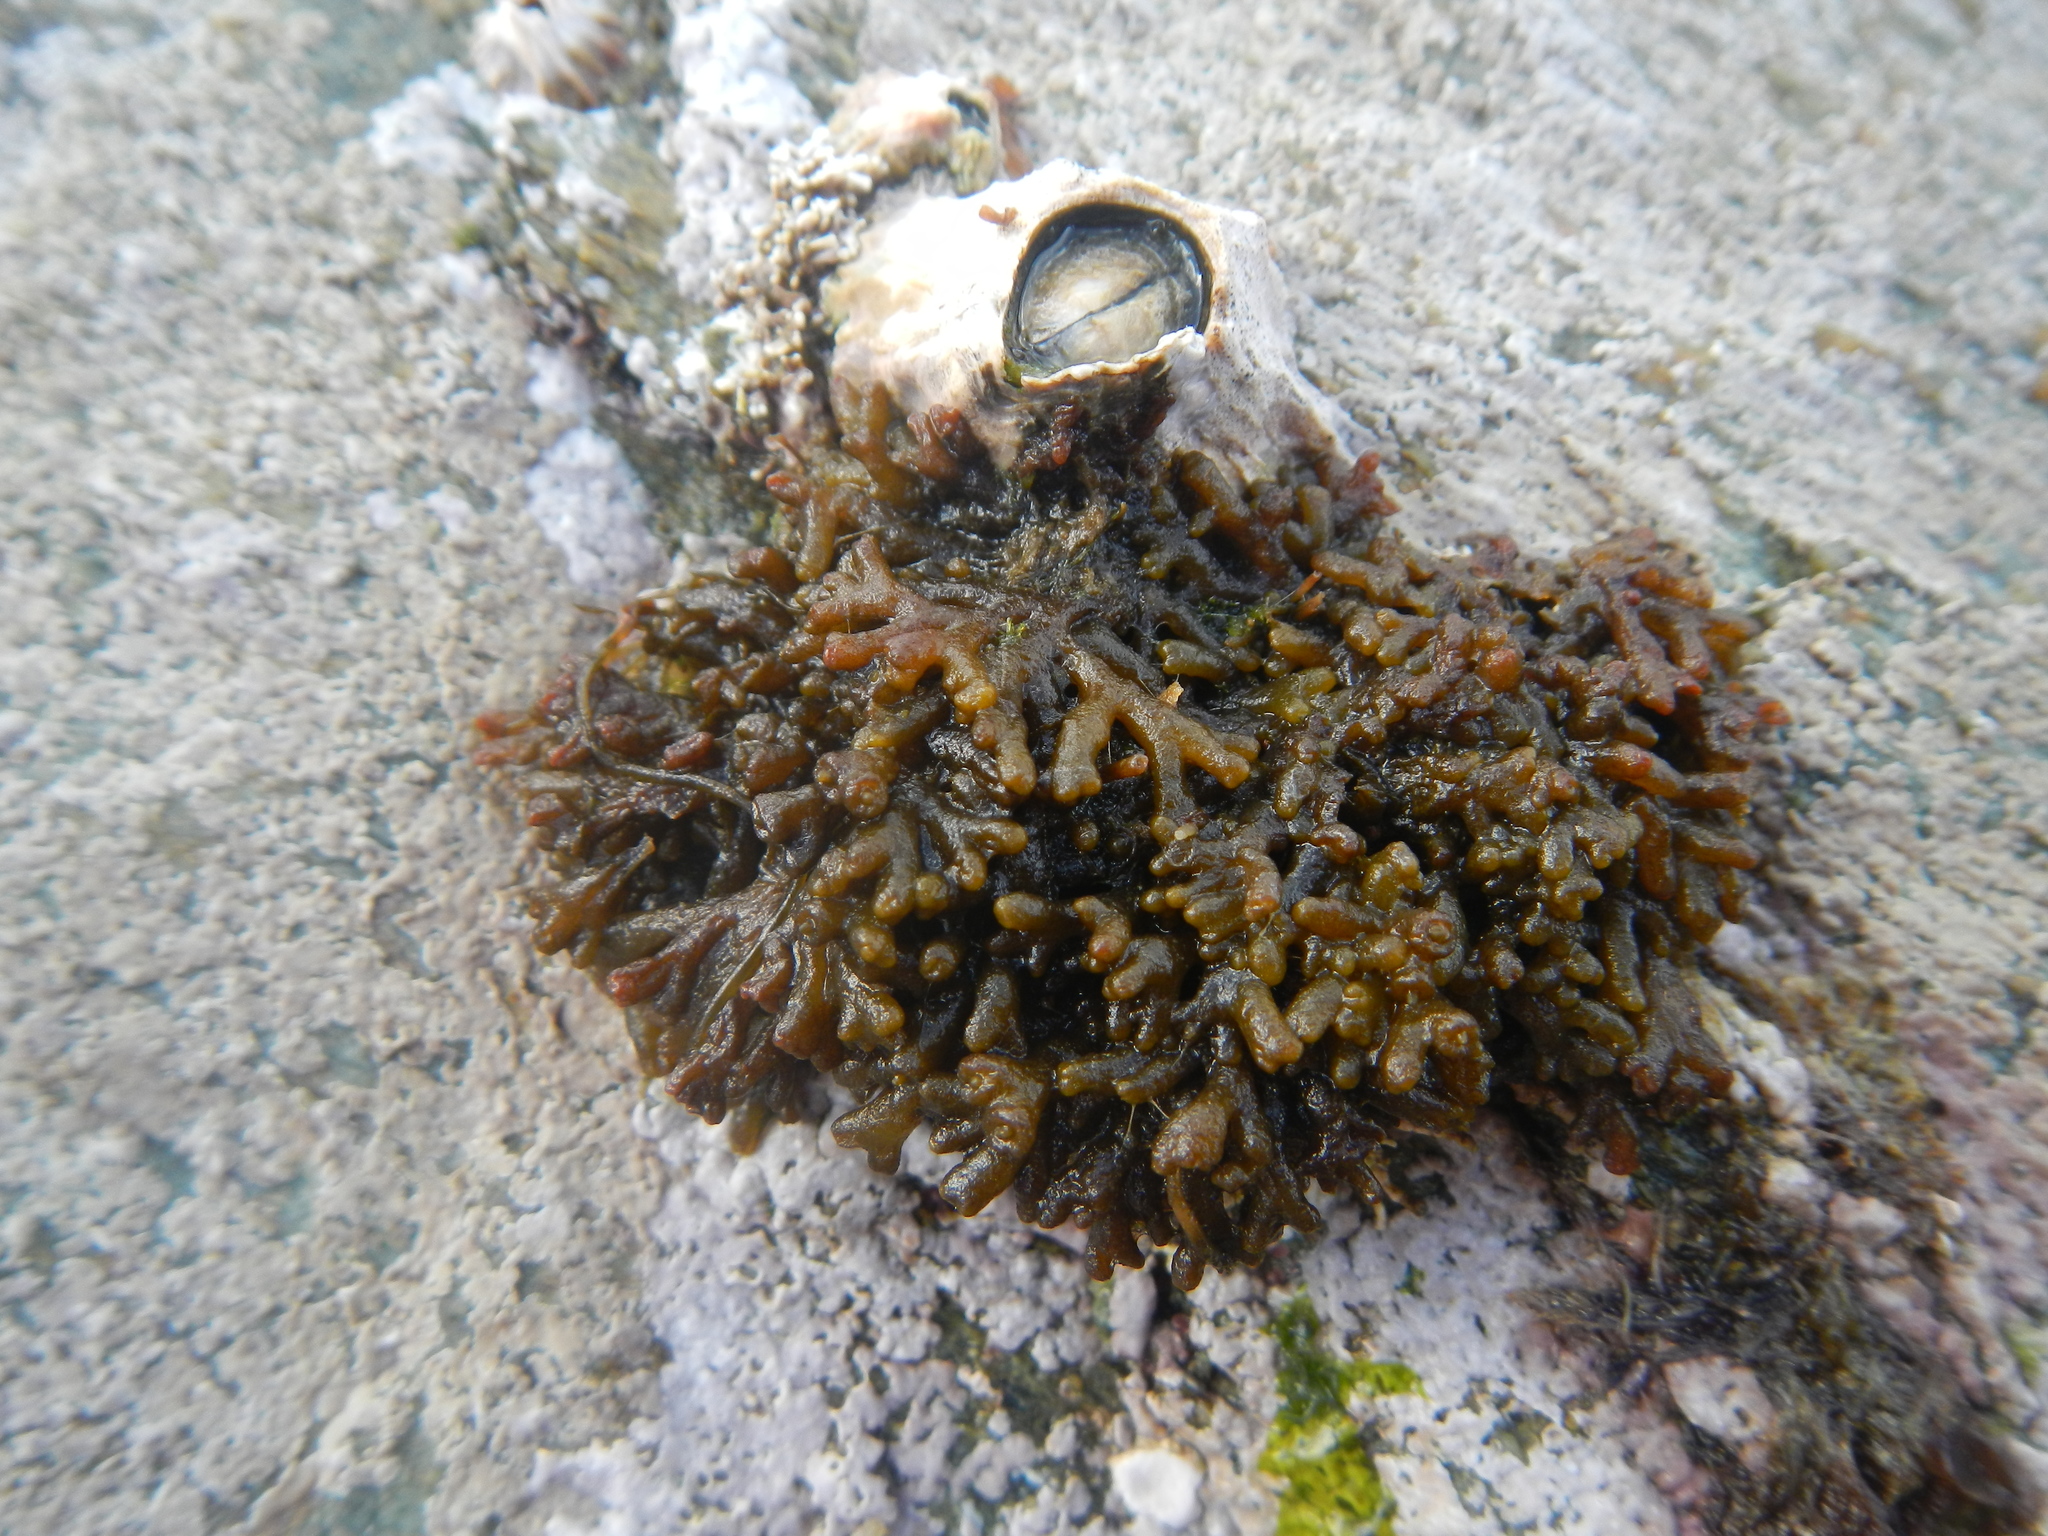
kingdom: Chromista
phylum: Ochrophyta
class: Phaeophyceae
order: Ectocarpales
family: Adenocystaceae
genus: Caepidium
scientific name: Caepidium antarcticum
